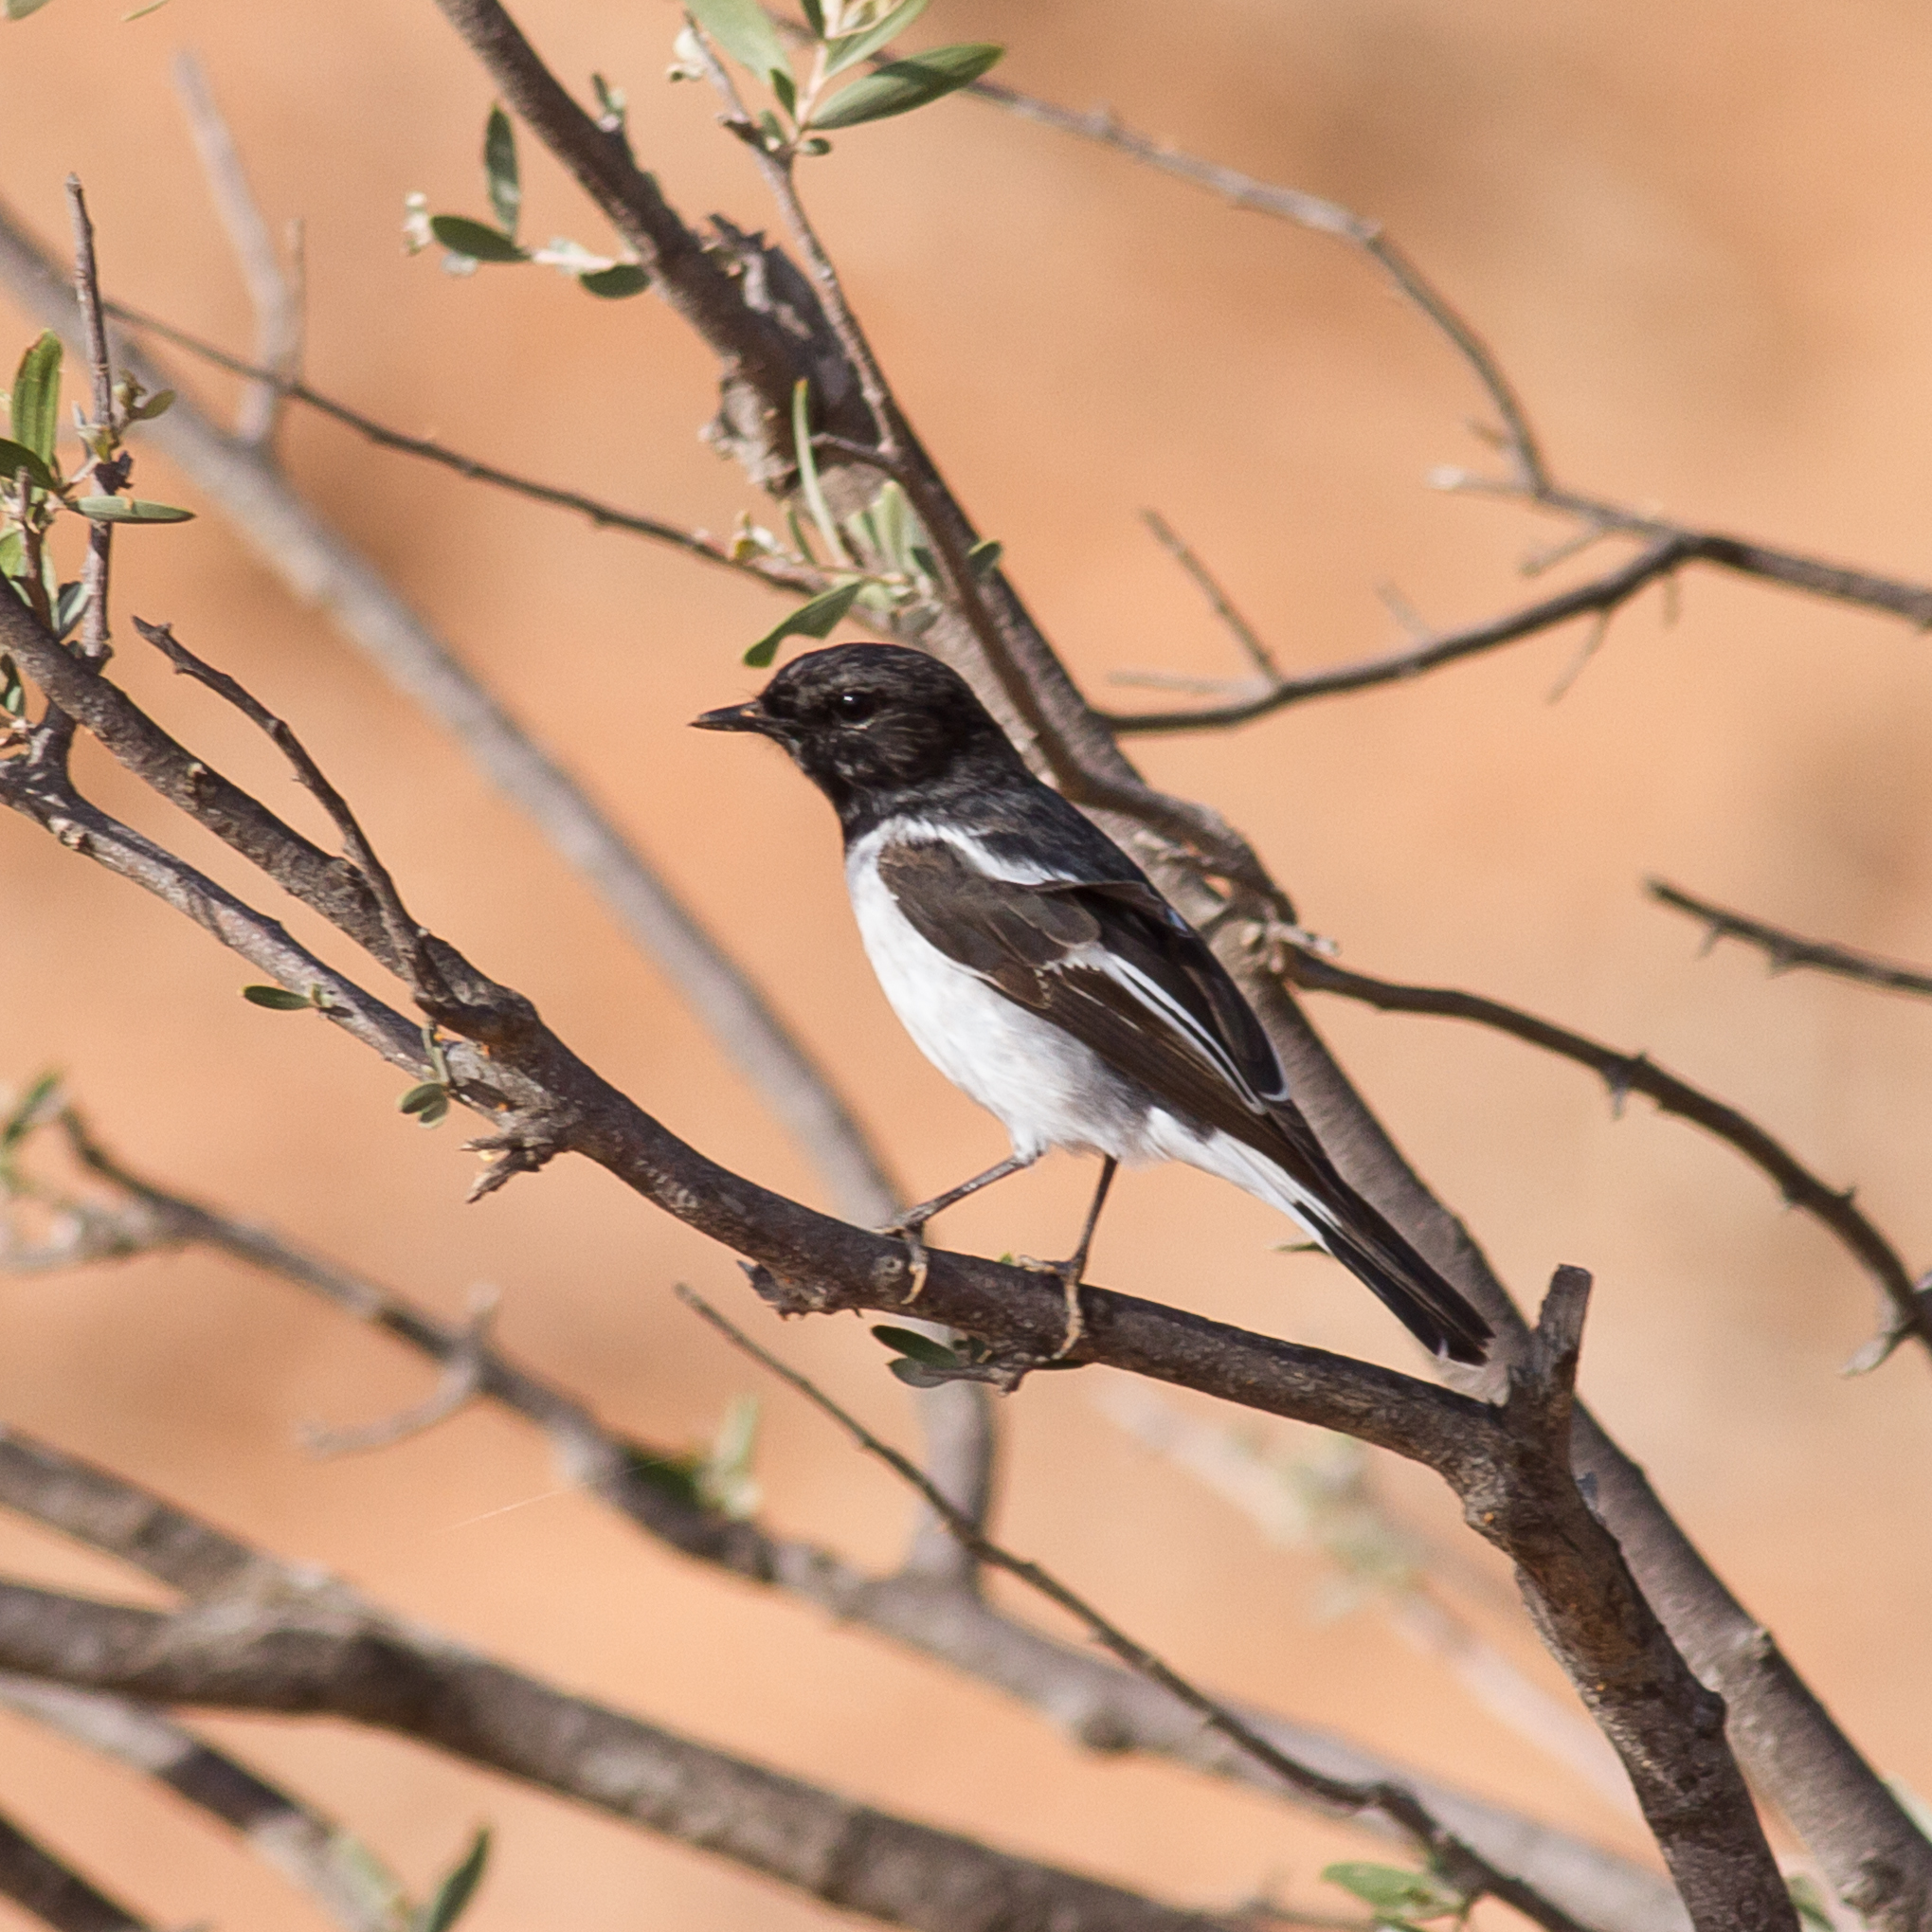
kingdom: Animalia
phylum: Chordata
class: Aves
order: Passeriformes
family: Petroicidae
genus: Melanodryas
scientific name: Melanodryas cucullata
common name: Hooded robin
